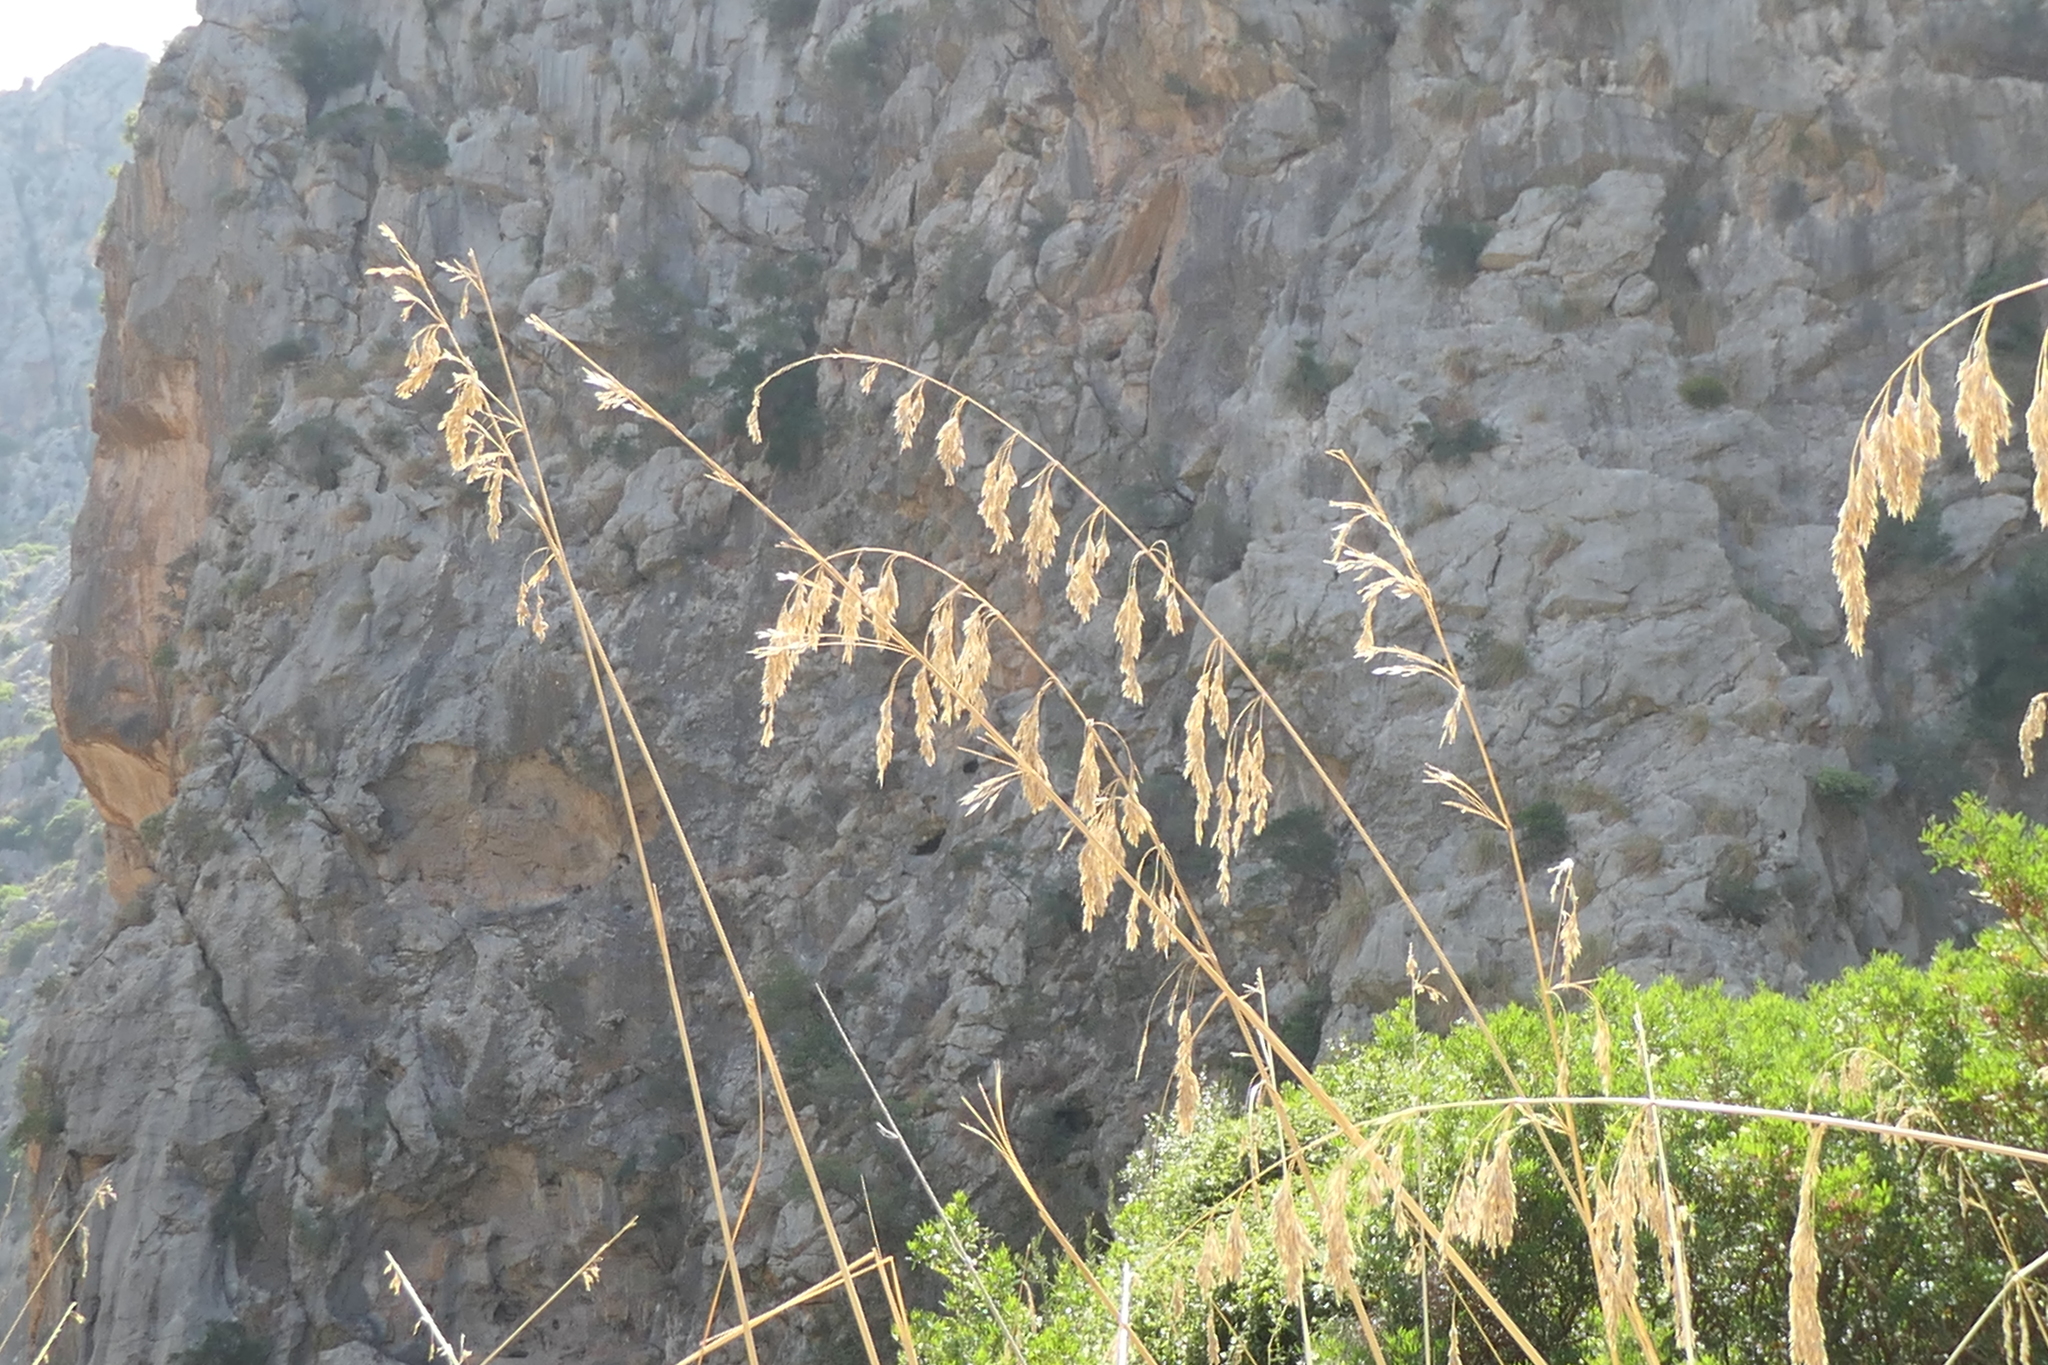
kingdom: Plantae
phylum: Tracheophyta
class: Liliopsida
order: Poales
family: Poaceae
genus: Ampelodesmos
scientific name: Ampelodesmos mauritanicus
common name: Mauritanian grass
